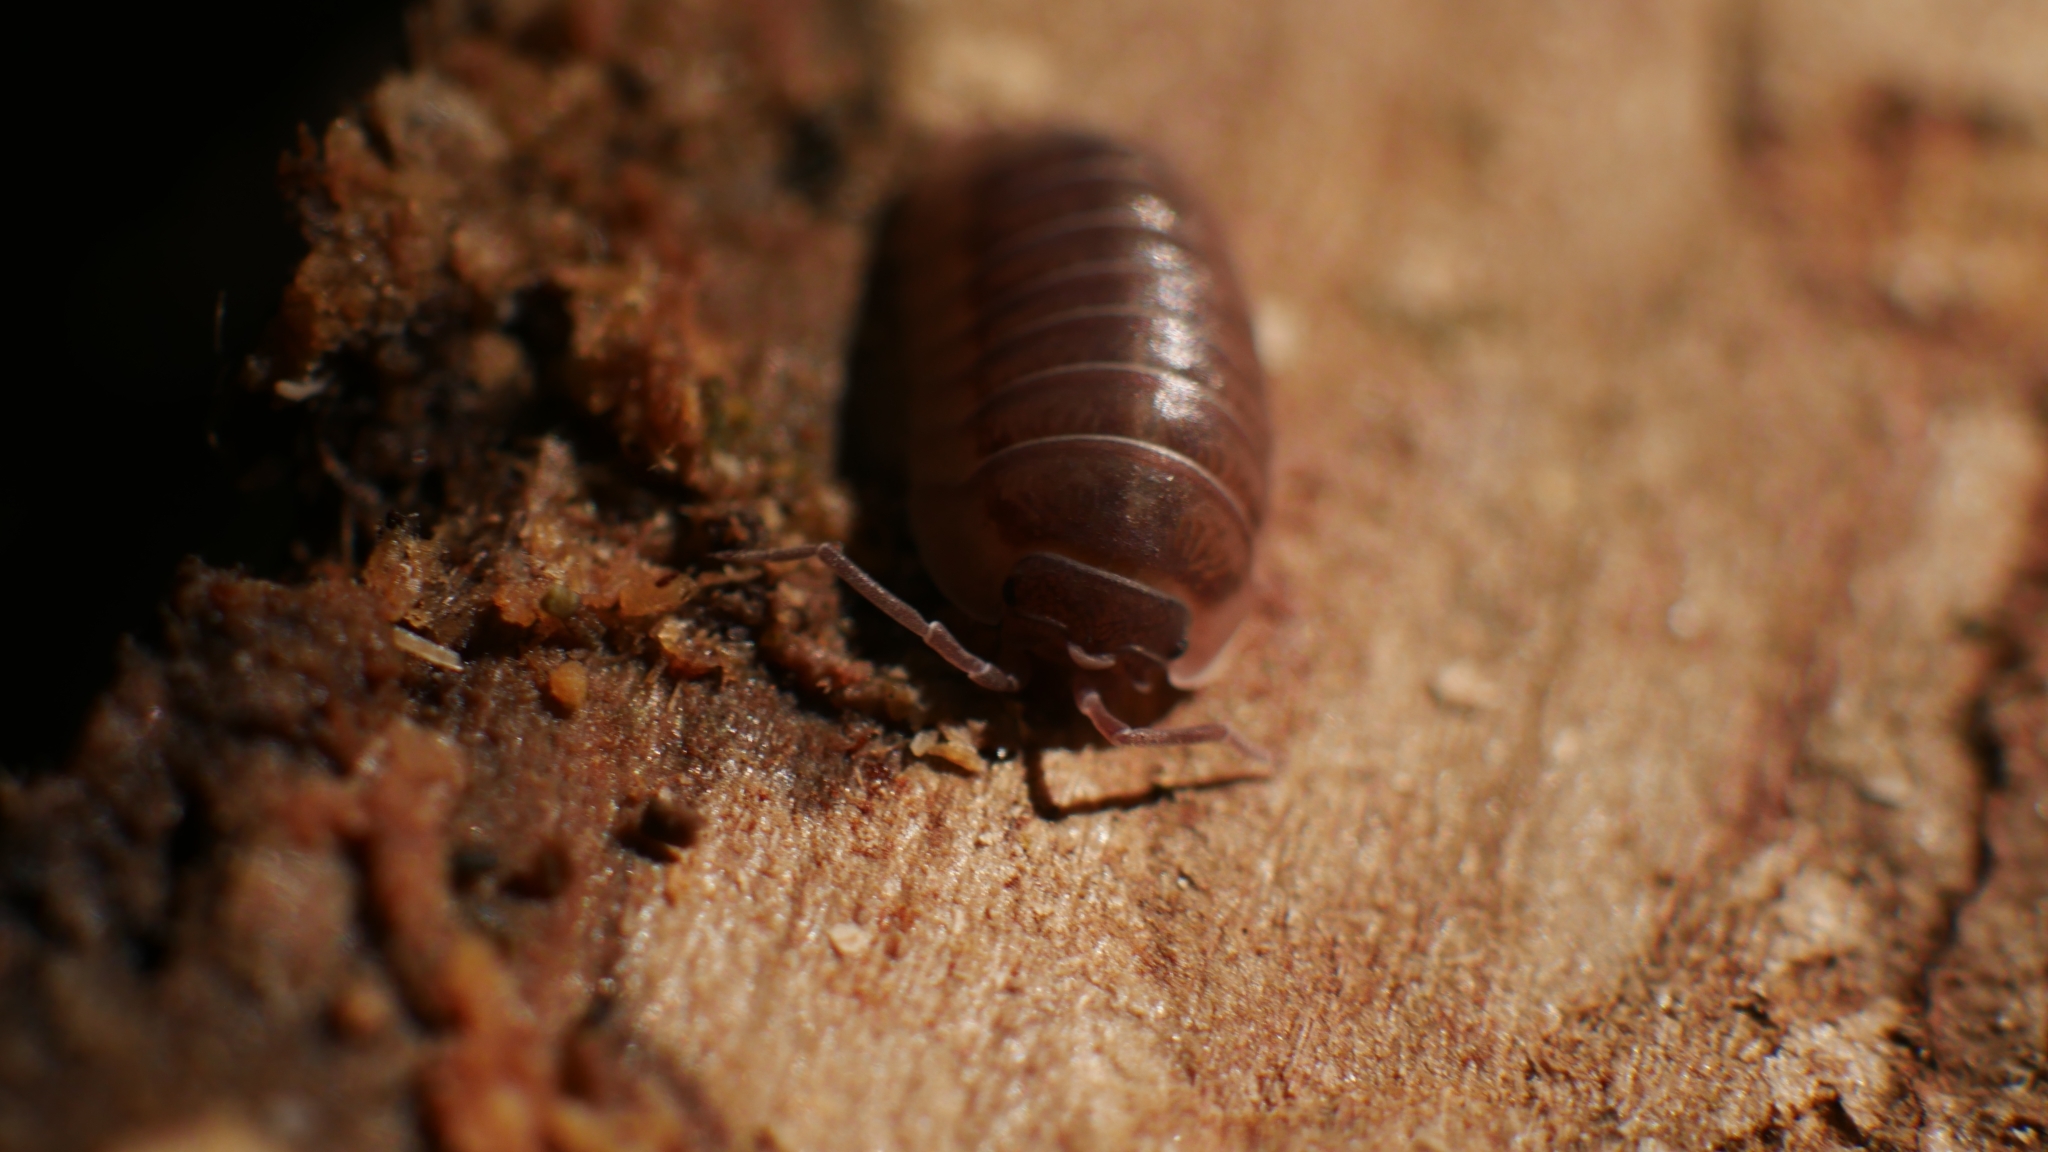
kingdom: Animalia
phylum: Arthropoda
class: Malacostraca
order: Isopoda
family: Armadillidiidae
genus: Armadillidium
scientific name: Armadillidium nasatum
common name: Isopod
